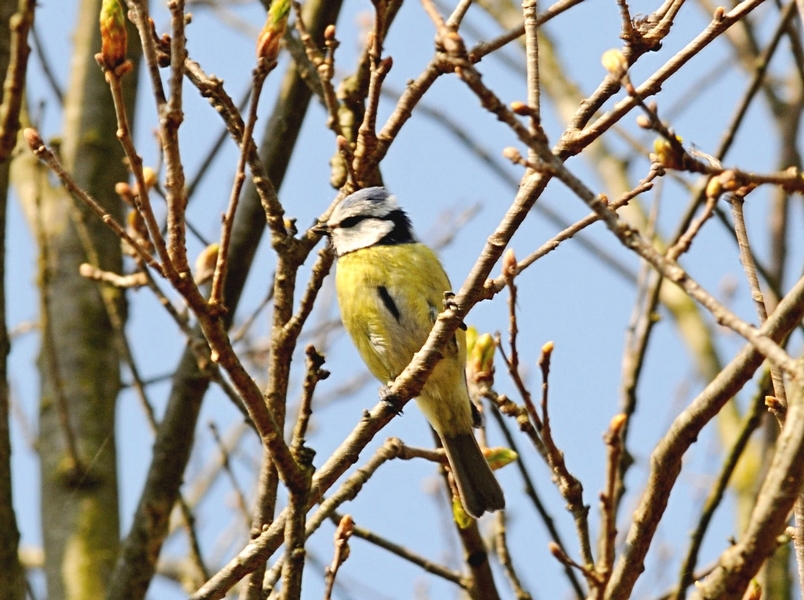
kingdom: Animalia
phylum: Chordata
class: Aves
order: Passeriformes
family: Paridae
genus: Cyanistes
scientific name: Cyanistes caeruleus
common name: Eurasian blue tit
